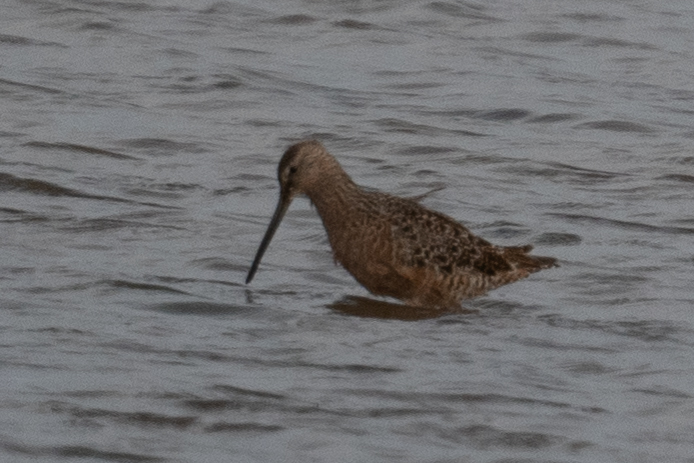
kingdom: Animalia
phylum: Chordata
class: Aves
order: Charadriiformes
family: Scolopacidae
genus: Limnodromus
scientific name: Limnodromus scolopaceus
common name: Long-billed dowitcher
